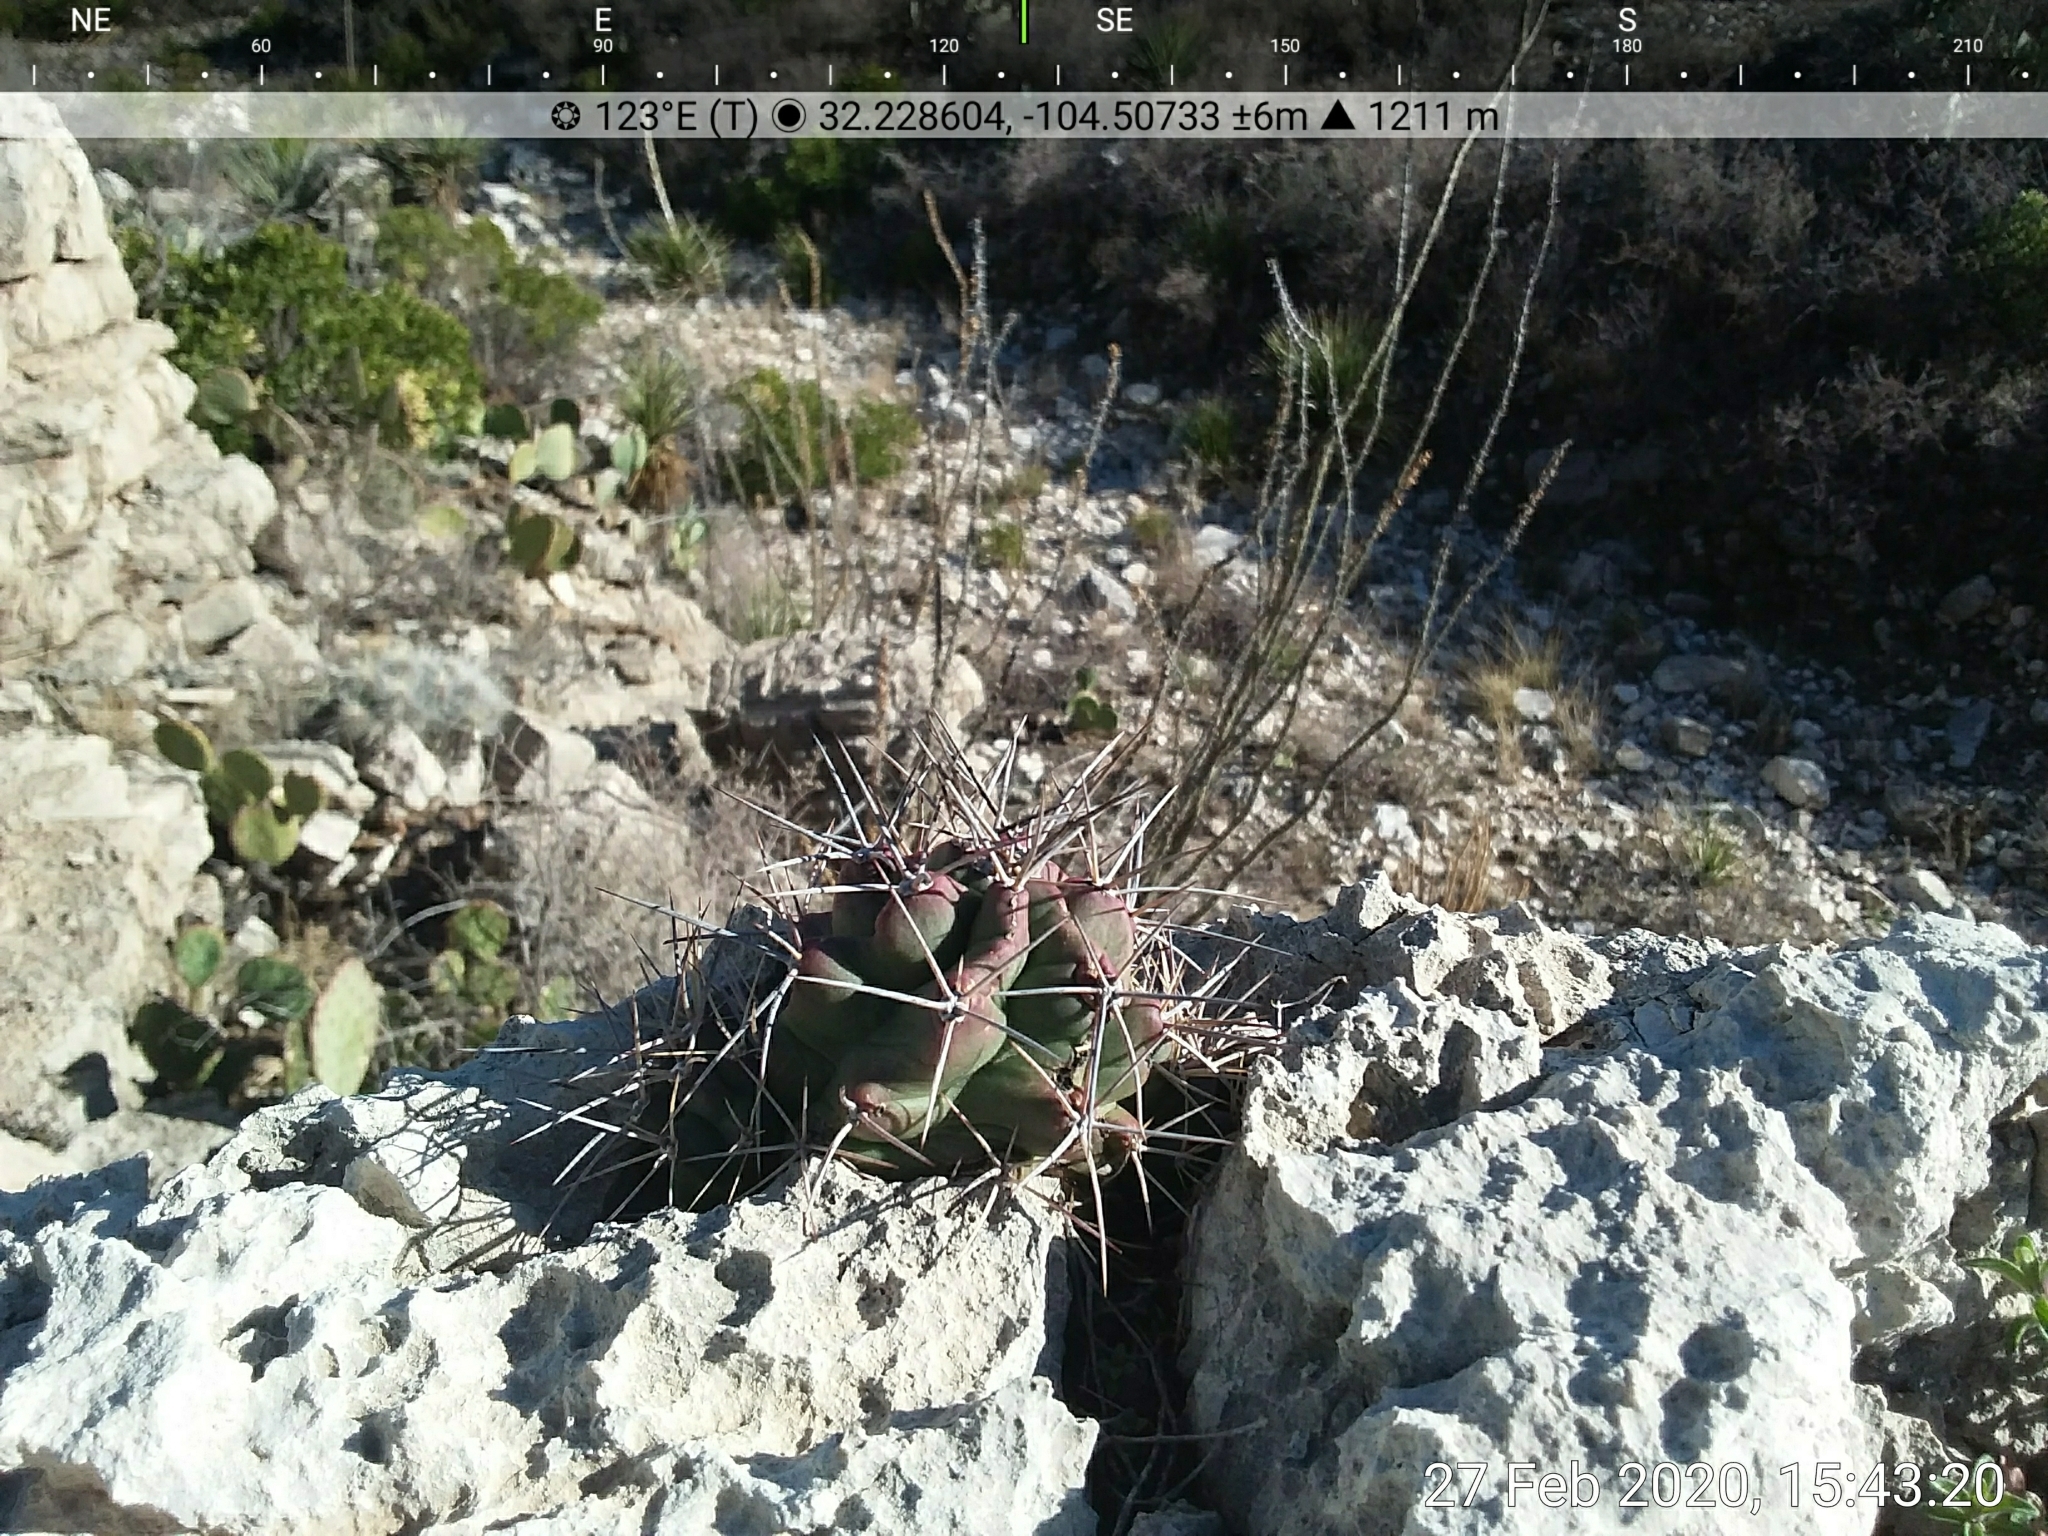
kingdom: Plantae
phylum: Tracheophyta
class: Magnoliopsida
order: Caryophyllales
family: Cactaceae
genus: Echinocereus
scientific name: Echinocereus coccineus
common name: Scarlet hedgehog cactus
